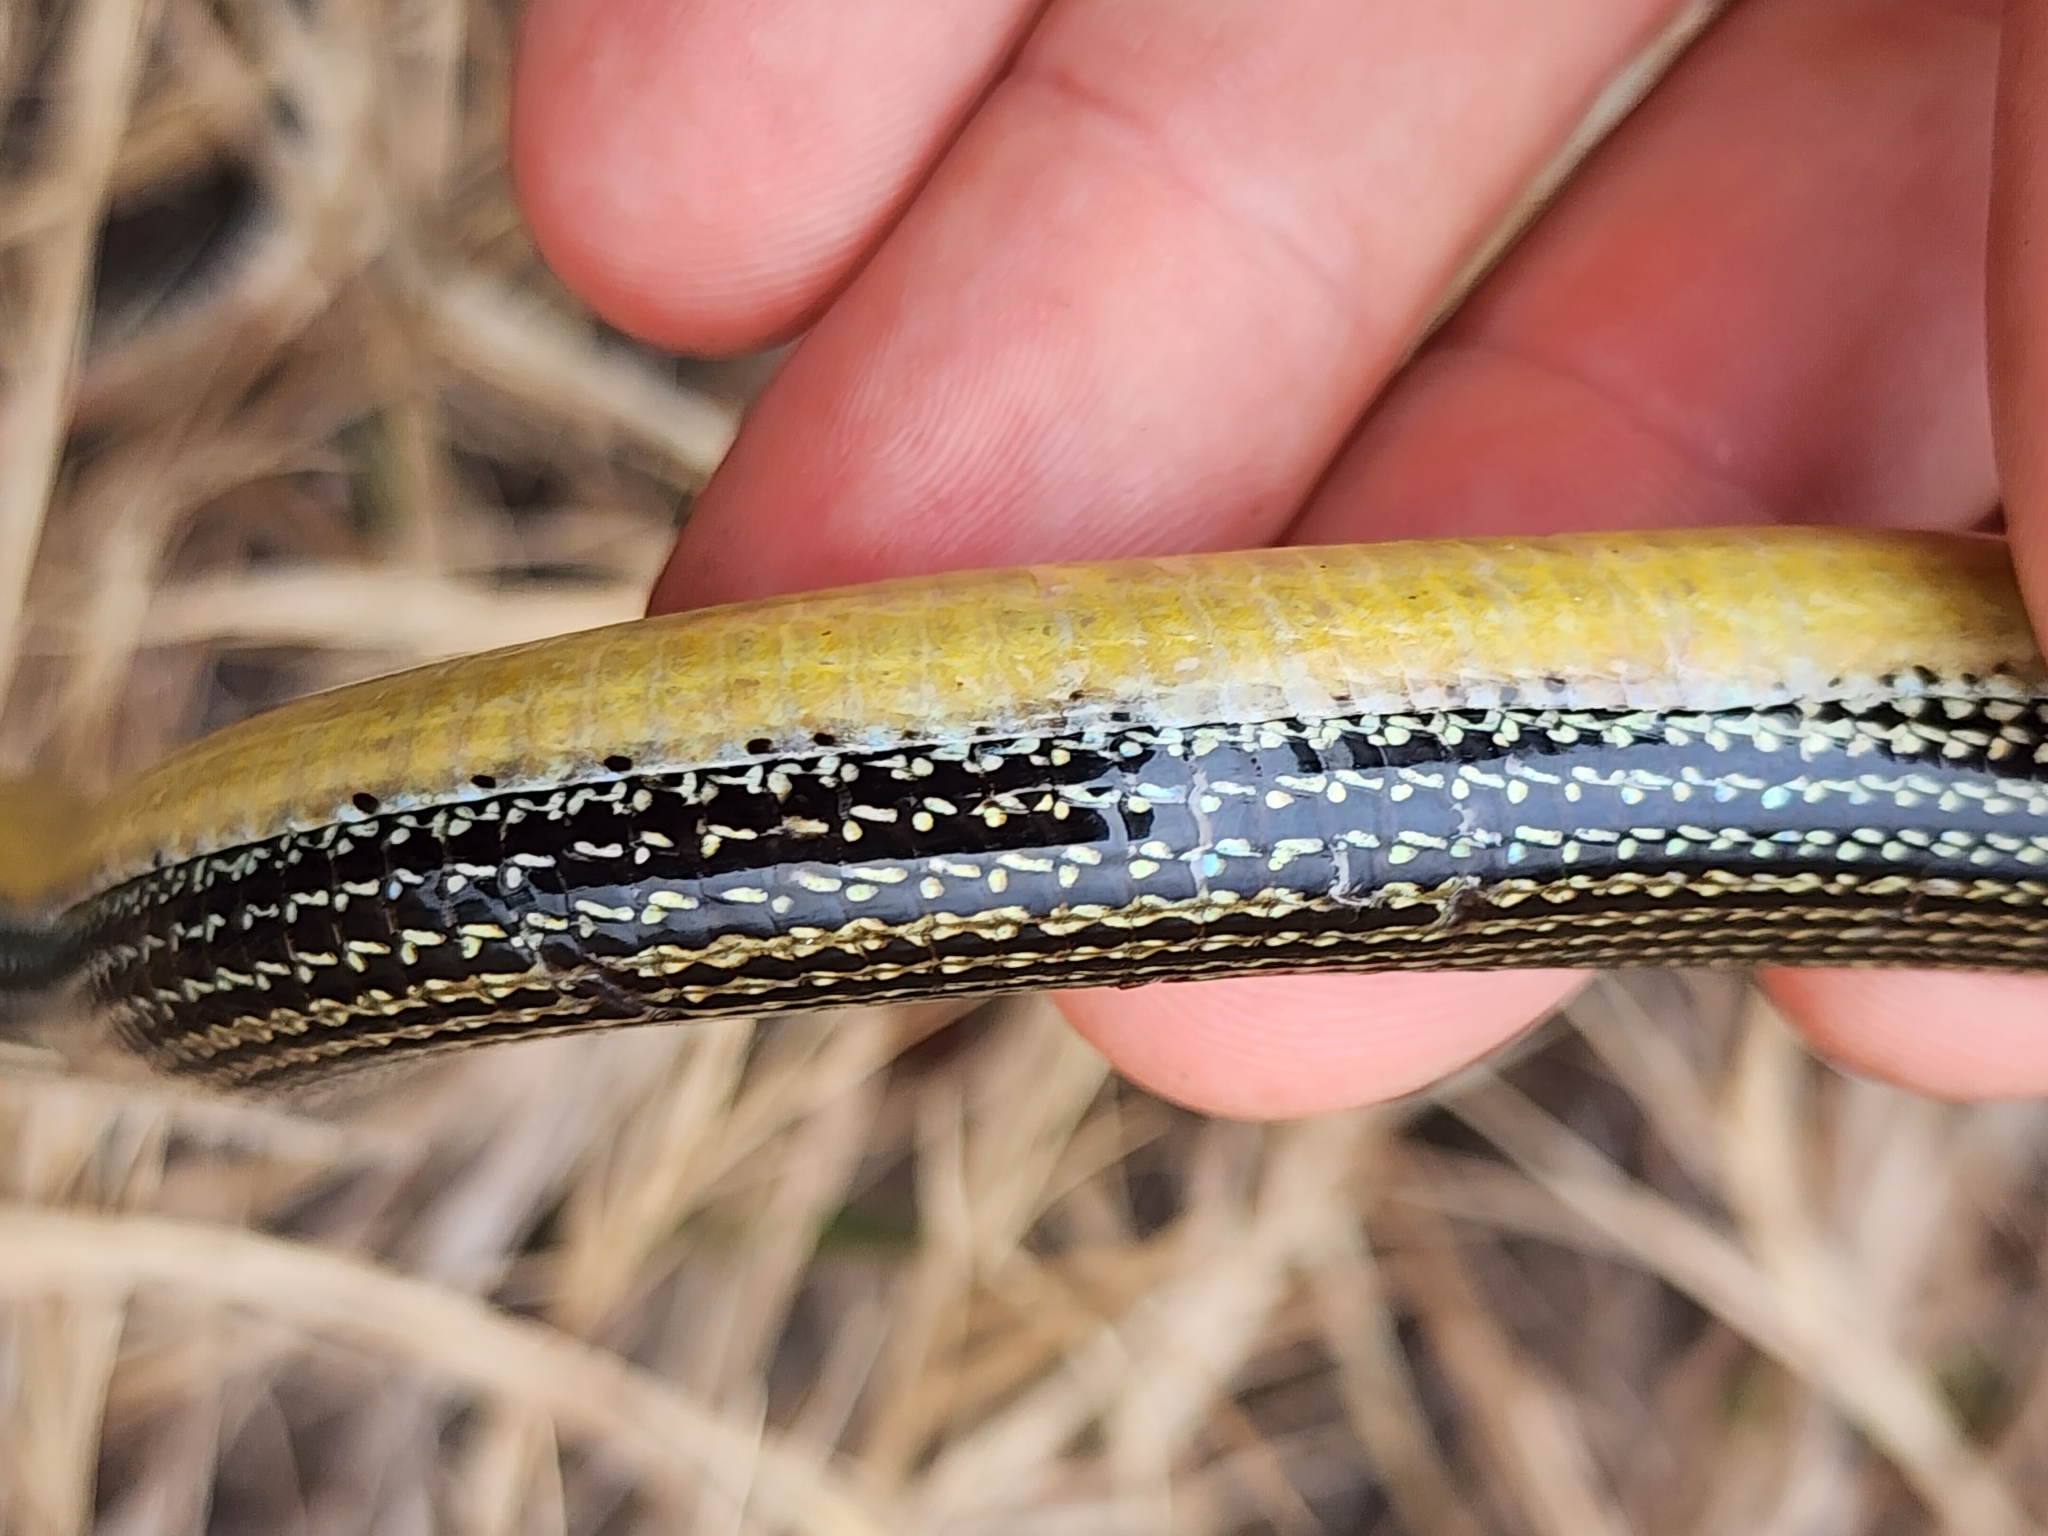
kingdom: Animalia
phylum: Chordata
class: Squamata
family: Anguidae
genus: Ophisaurus
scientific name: Ophisaurus ventralis
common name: Eastern glass lizard
